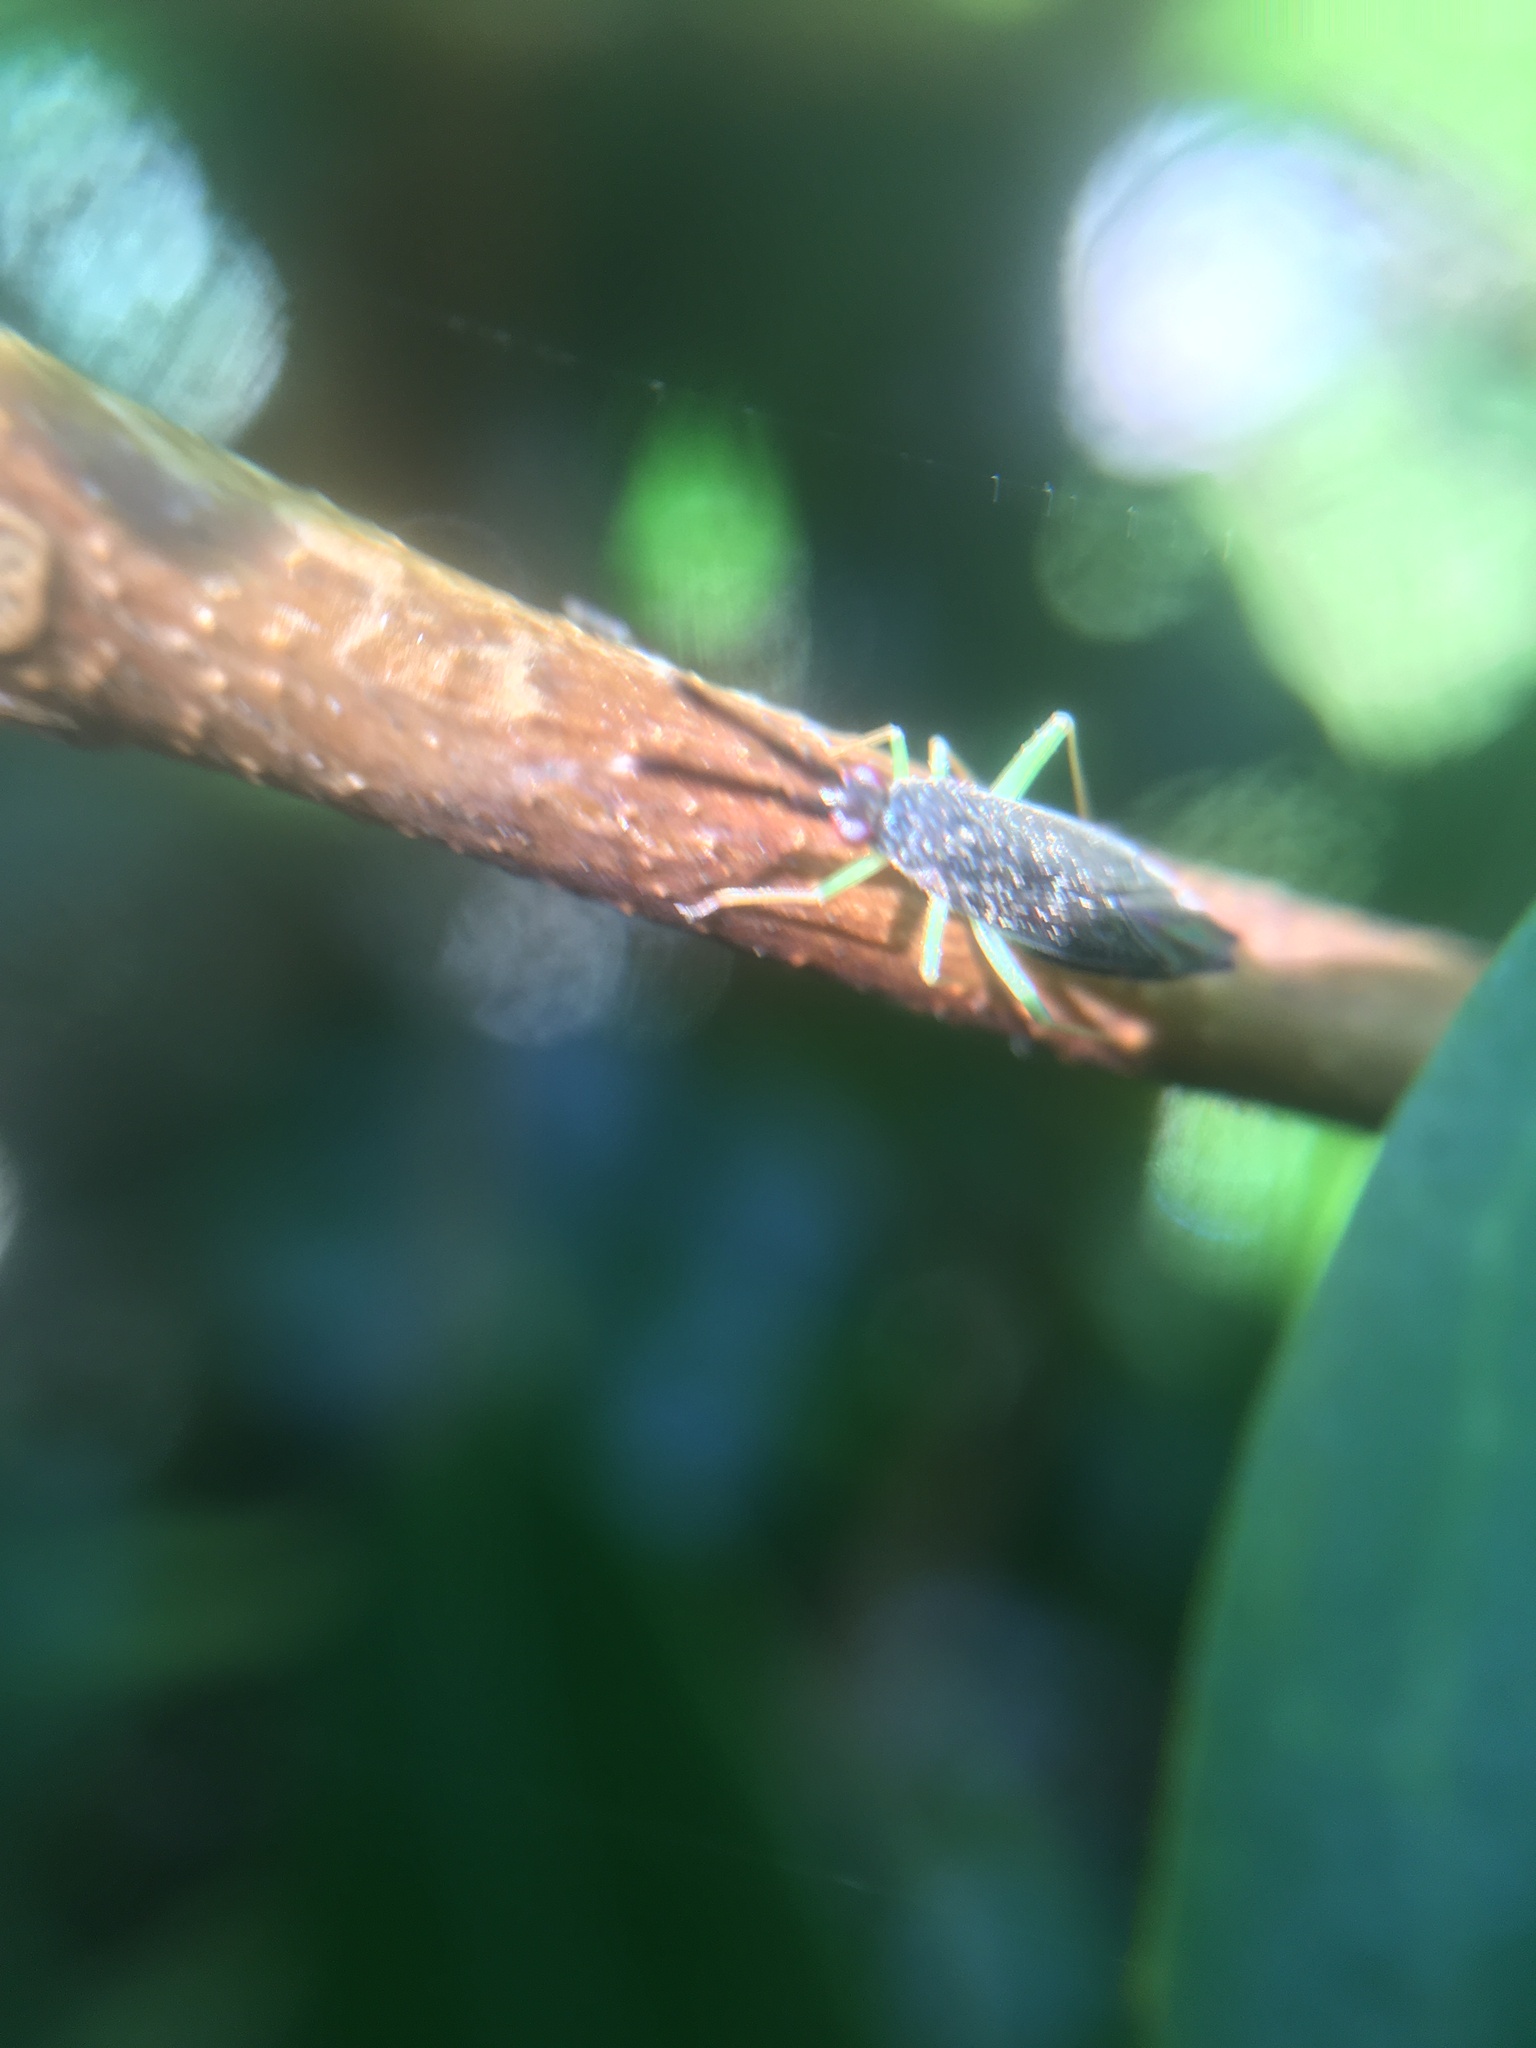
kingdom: Animalia
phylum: Arthropoda
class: Insecta
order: Hemiptera
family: Miridae
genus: Heterotoma
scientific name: Heterotoma planicornis
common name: Plant bug
